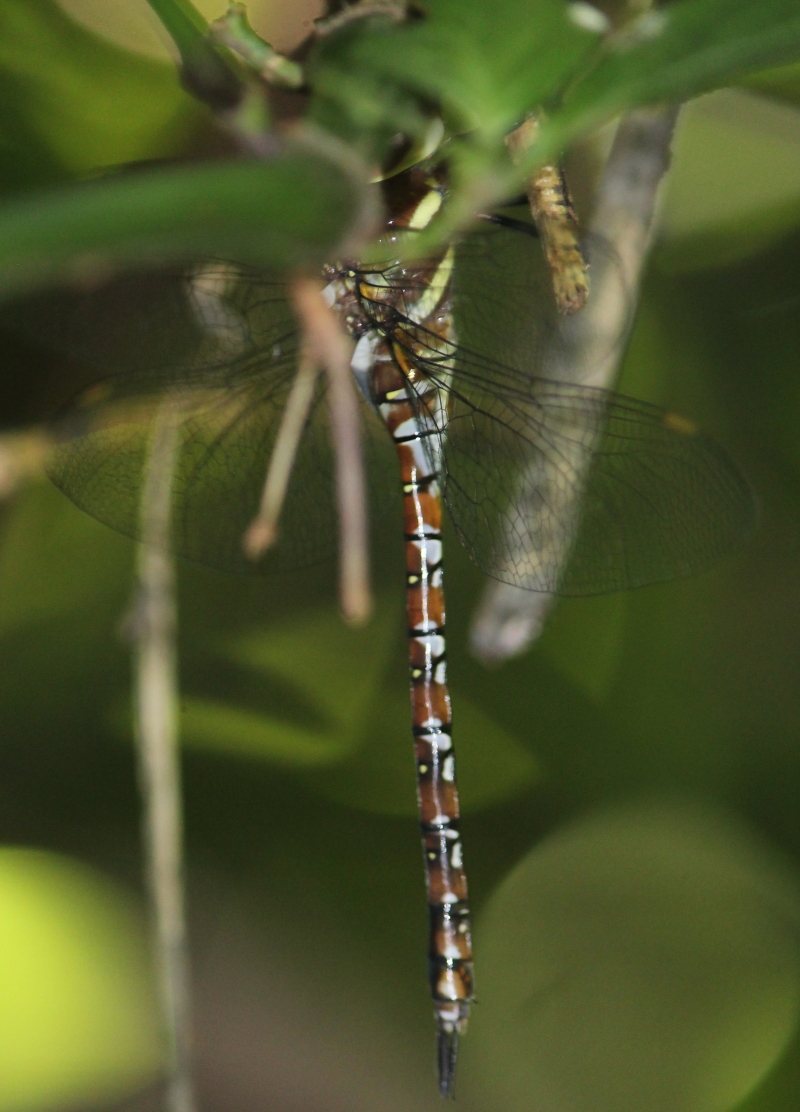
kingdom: Animalia
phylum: Arthropoda
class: Insecta
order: Odonata
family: Aeshnidae
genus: Anaciaeschna
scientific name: Anaciaeschna triangulifera
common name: Evening hawker
